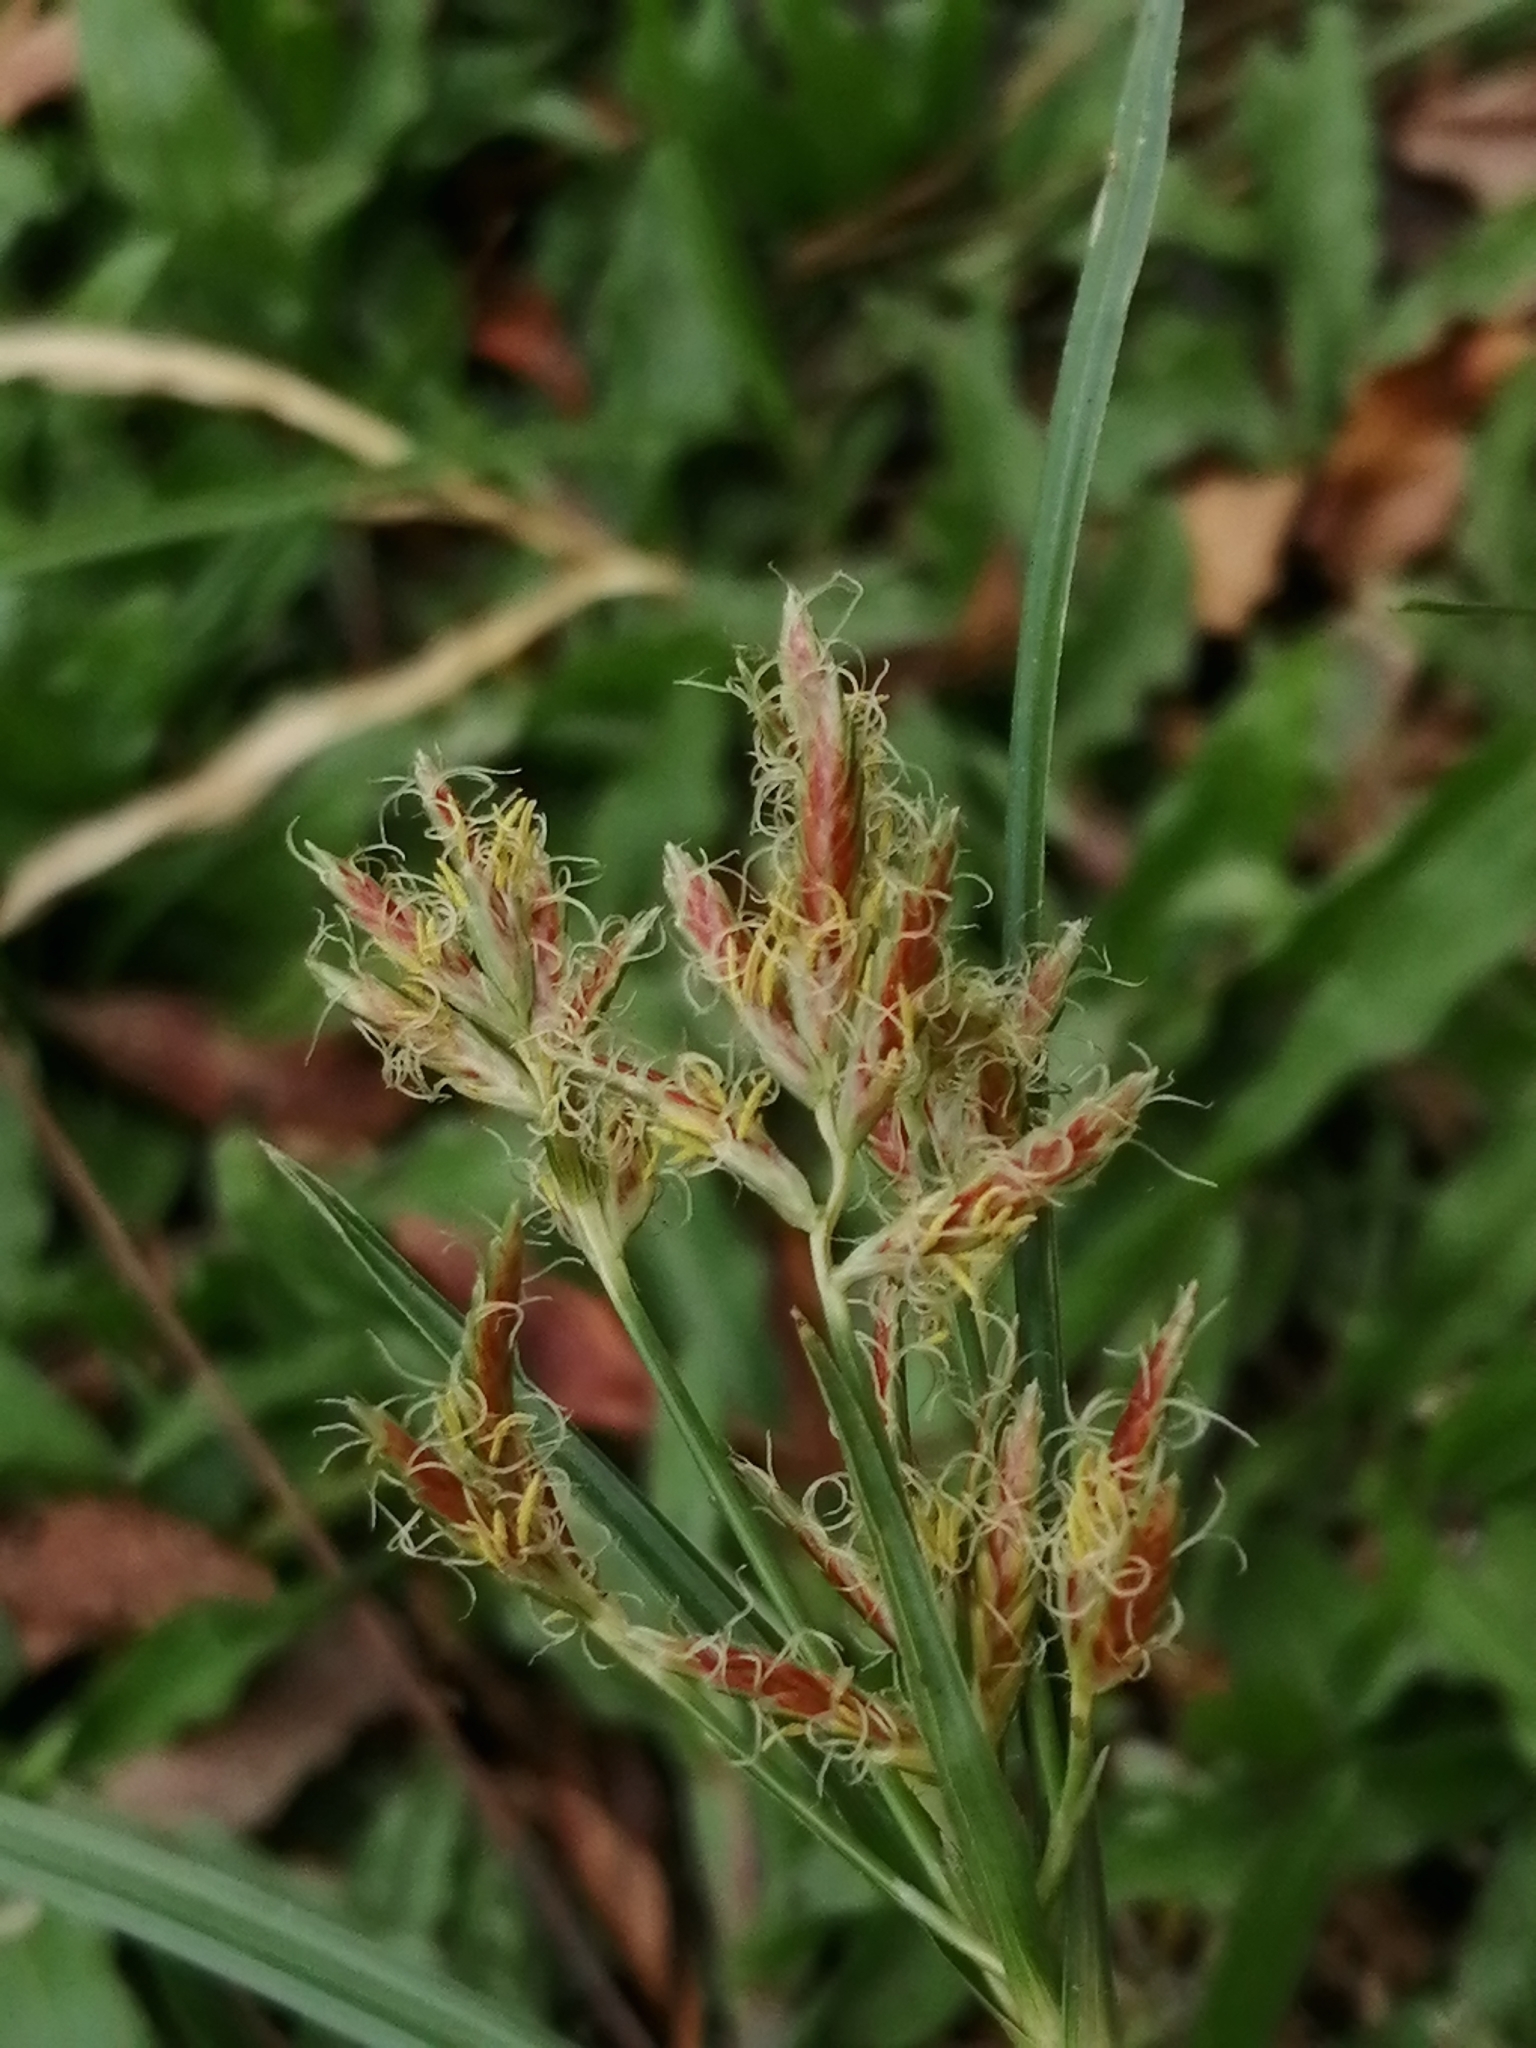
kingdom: Plantae
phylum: Tracheophyta
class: Liliopsida
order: Poales
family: Cyperaceae
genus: Cyperus
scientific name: Cyperus rotundus
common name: Nutgrass
